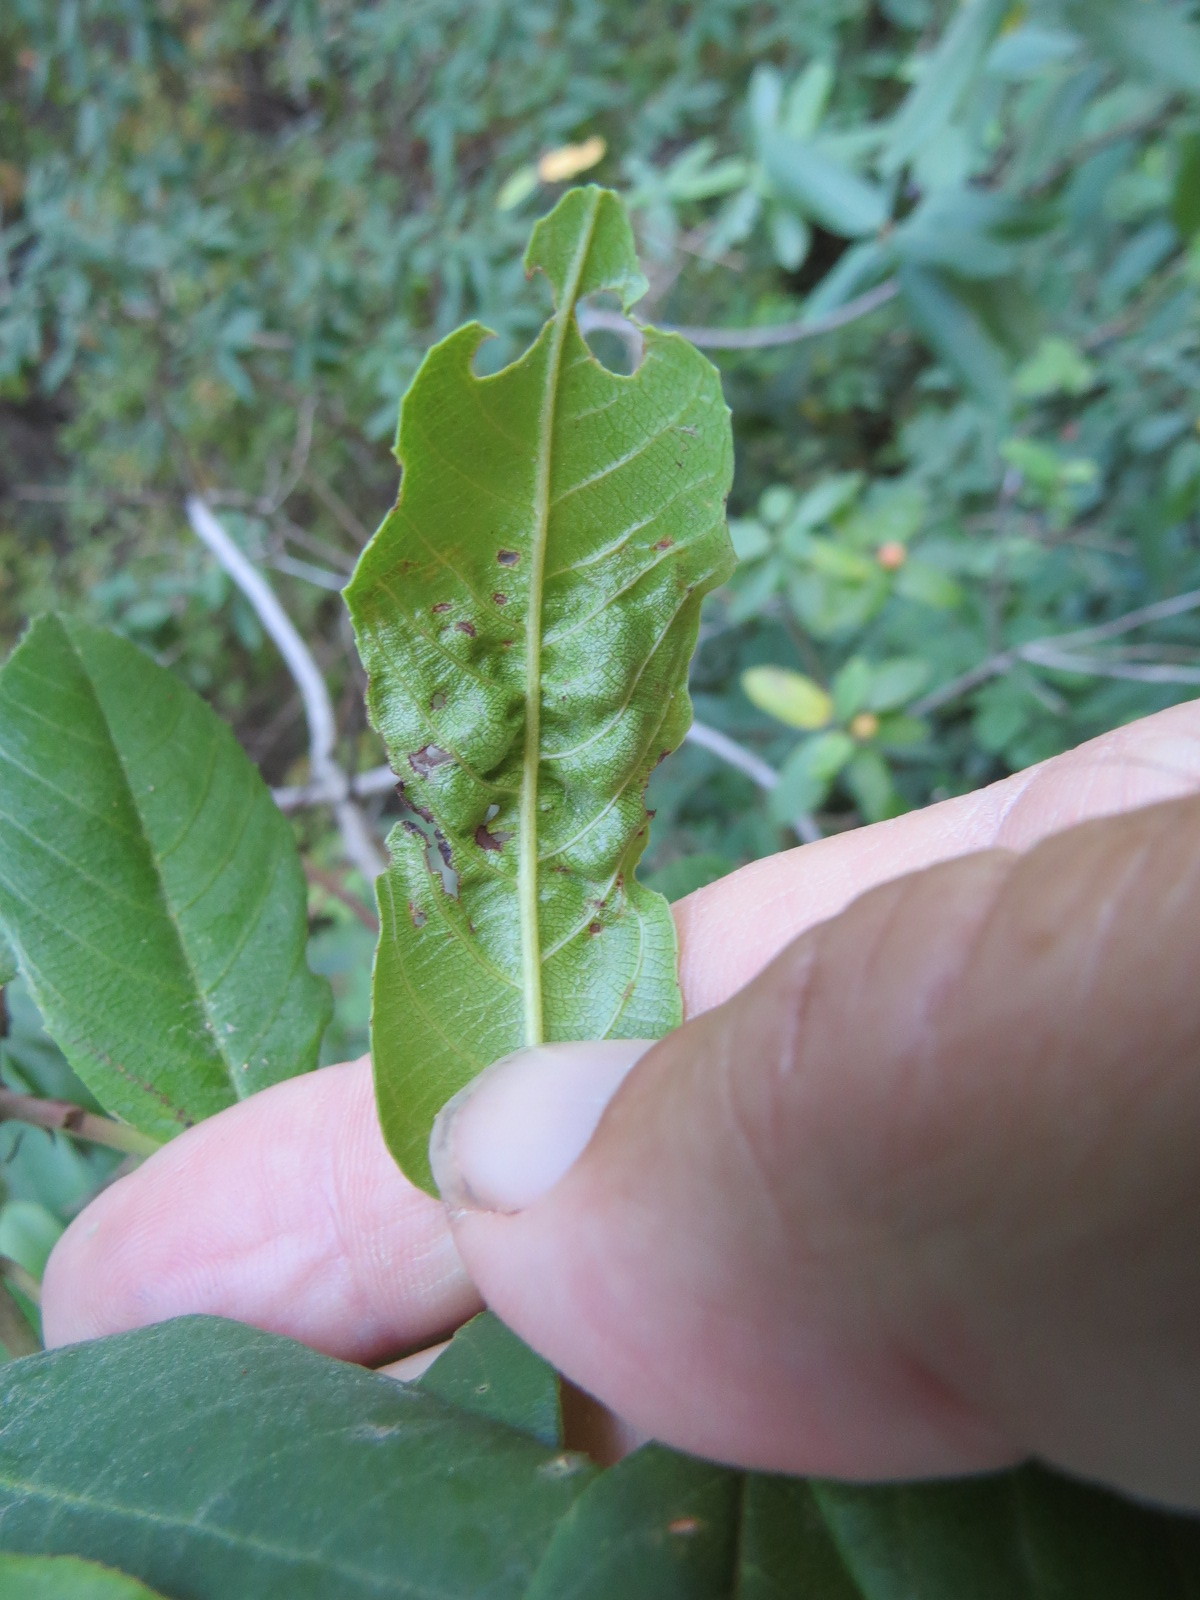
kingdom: Plantae
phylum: Tracheophyta
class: Magnoliopsida
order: Rosales
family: Rhamnaceae
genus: Frangula
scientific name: Frangula californica
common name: California buckthorn
